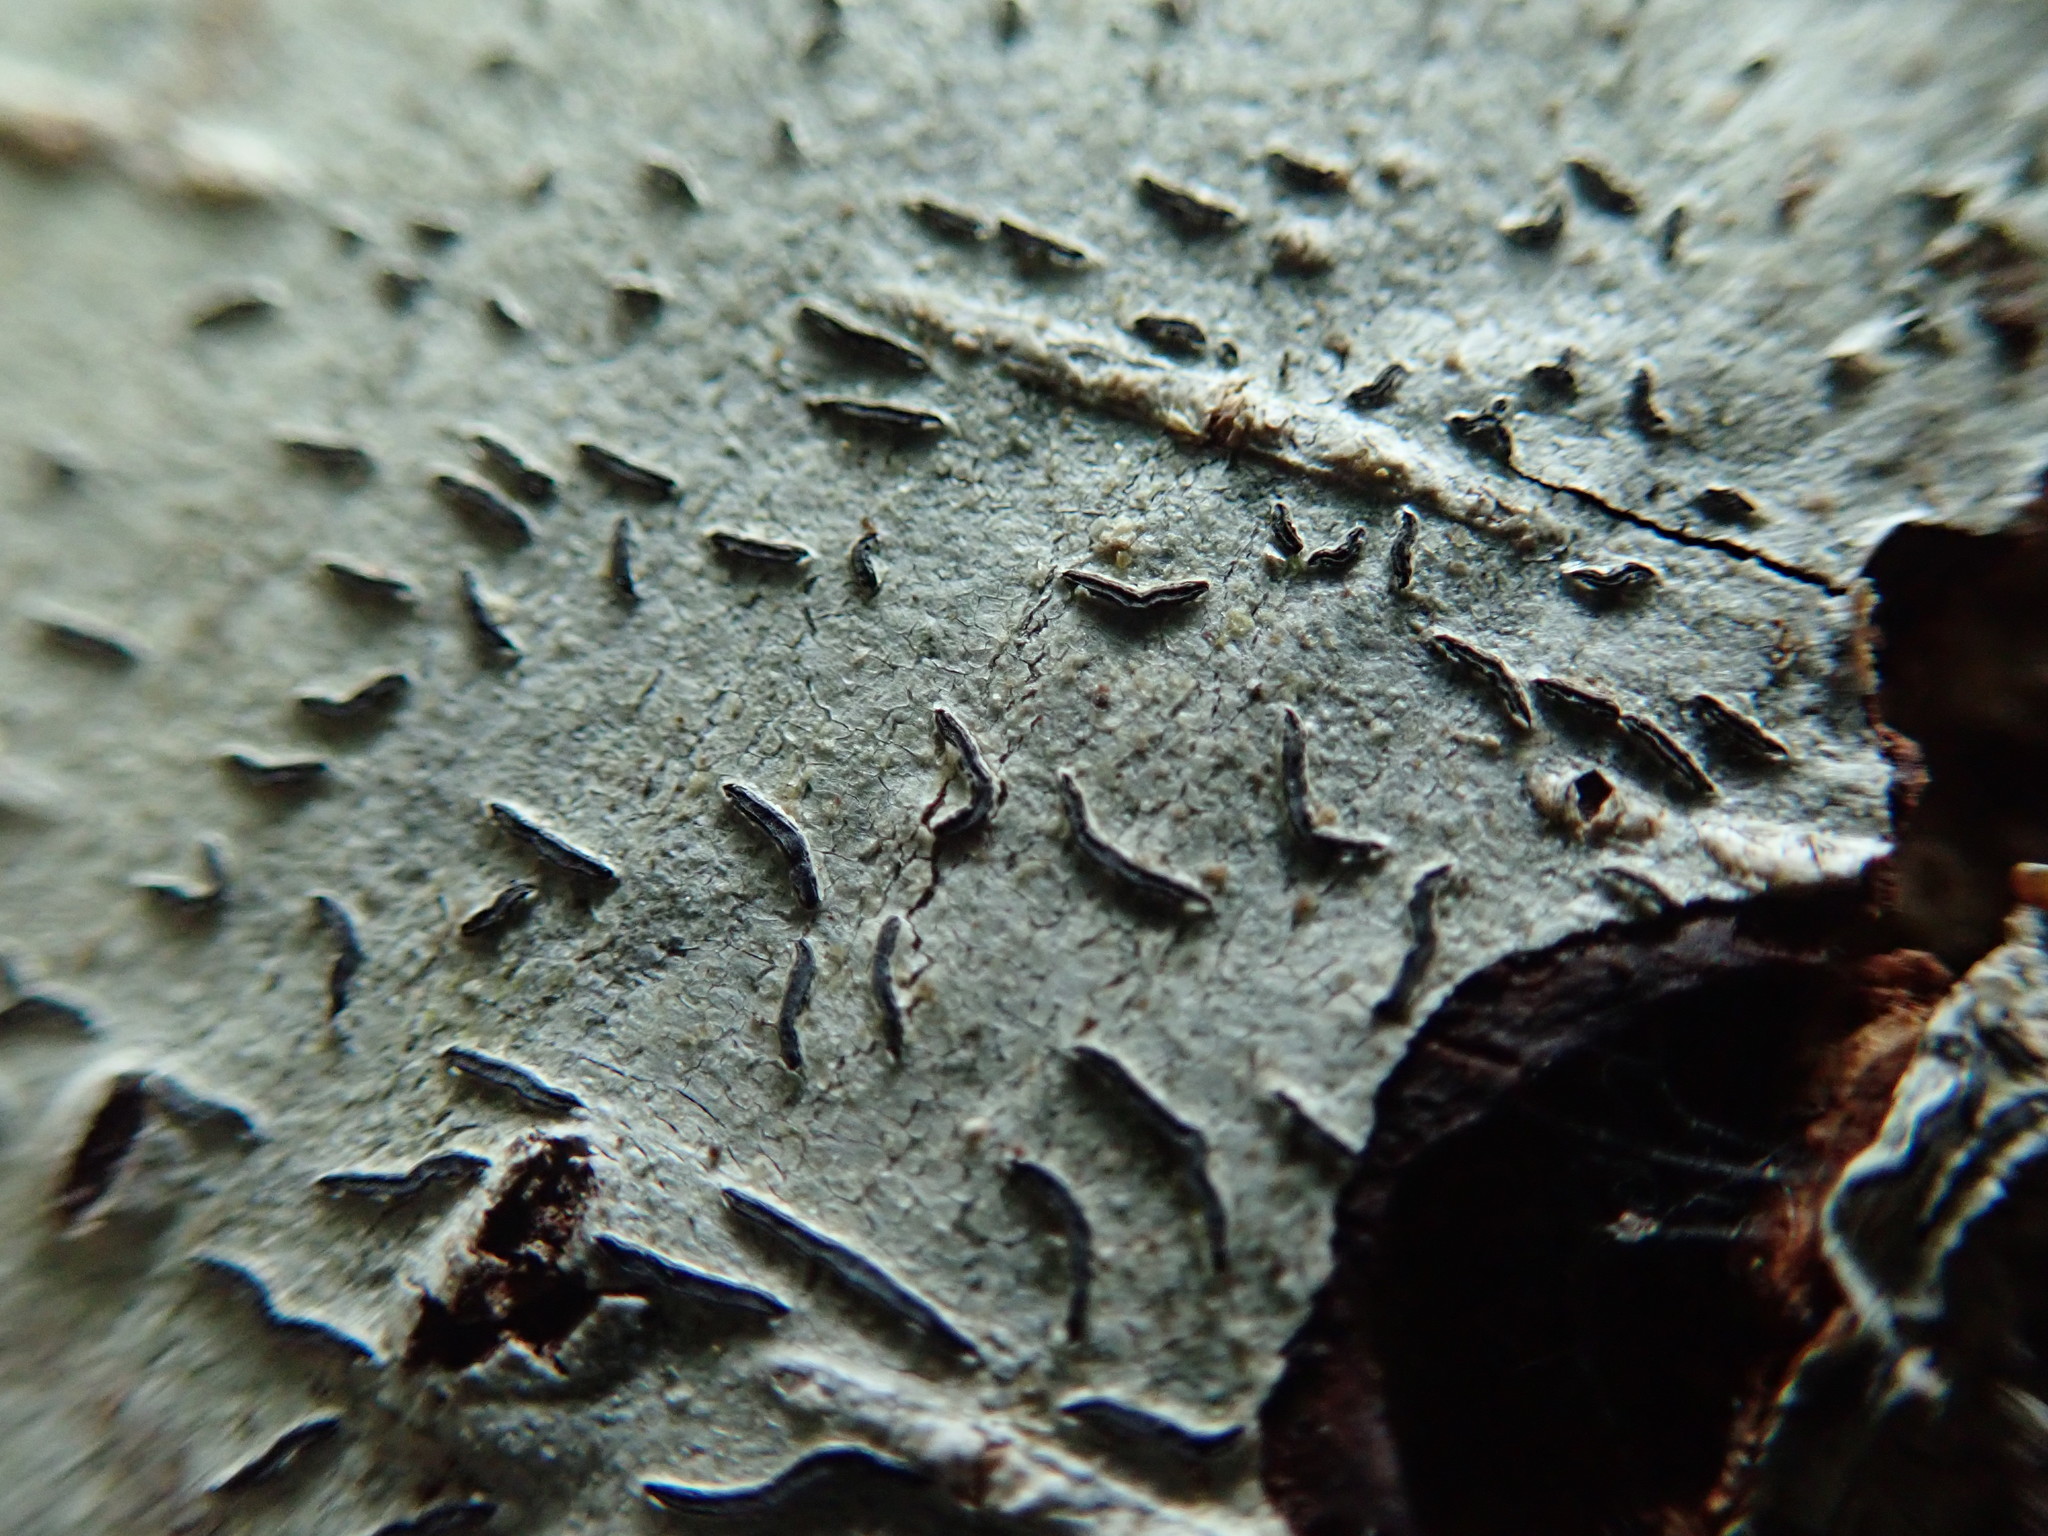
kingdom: Fungi
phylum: Ascomycota
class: Lecanoromycetes
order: Ostropales
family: Graphidaceae
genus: Graphis
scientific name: Graphis scripta
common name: Script lichen
